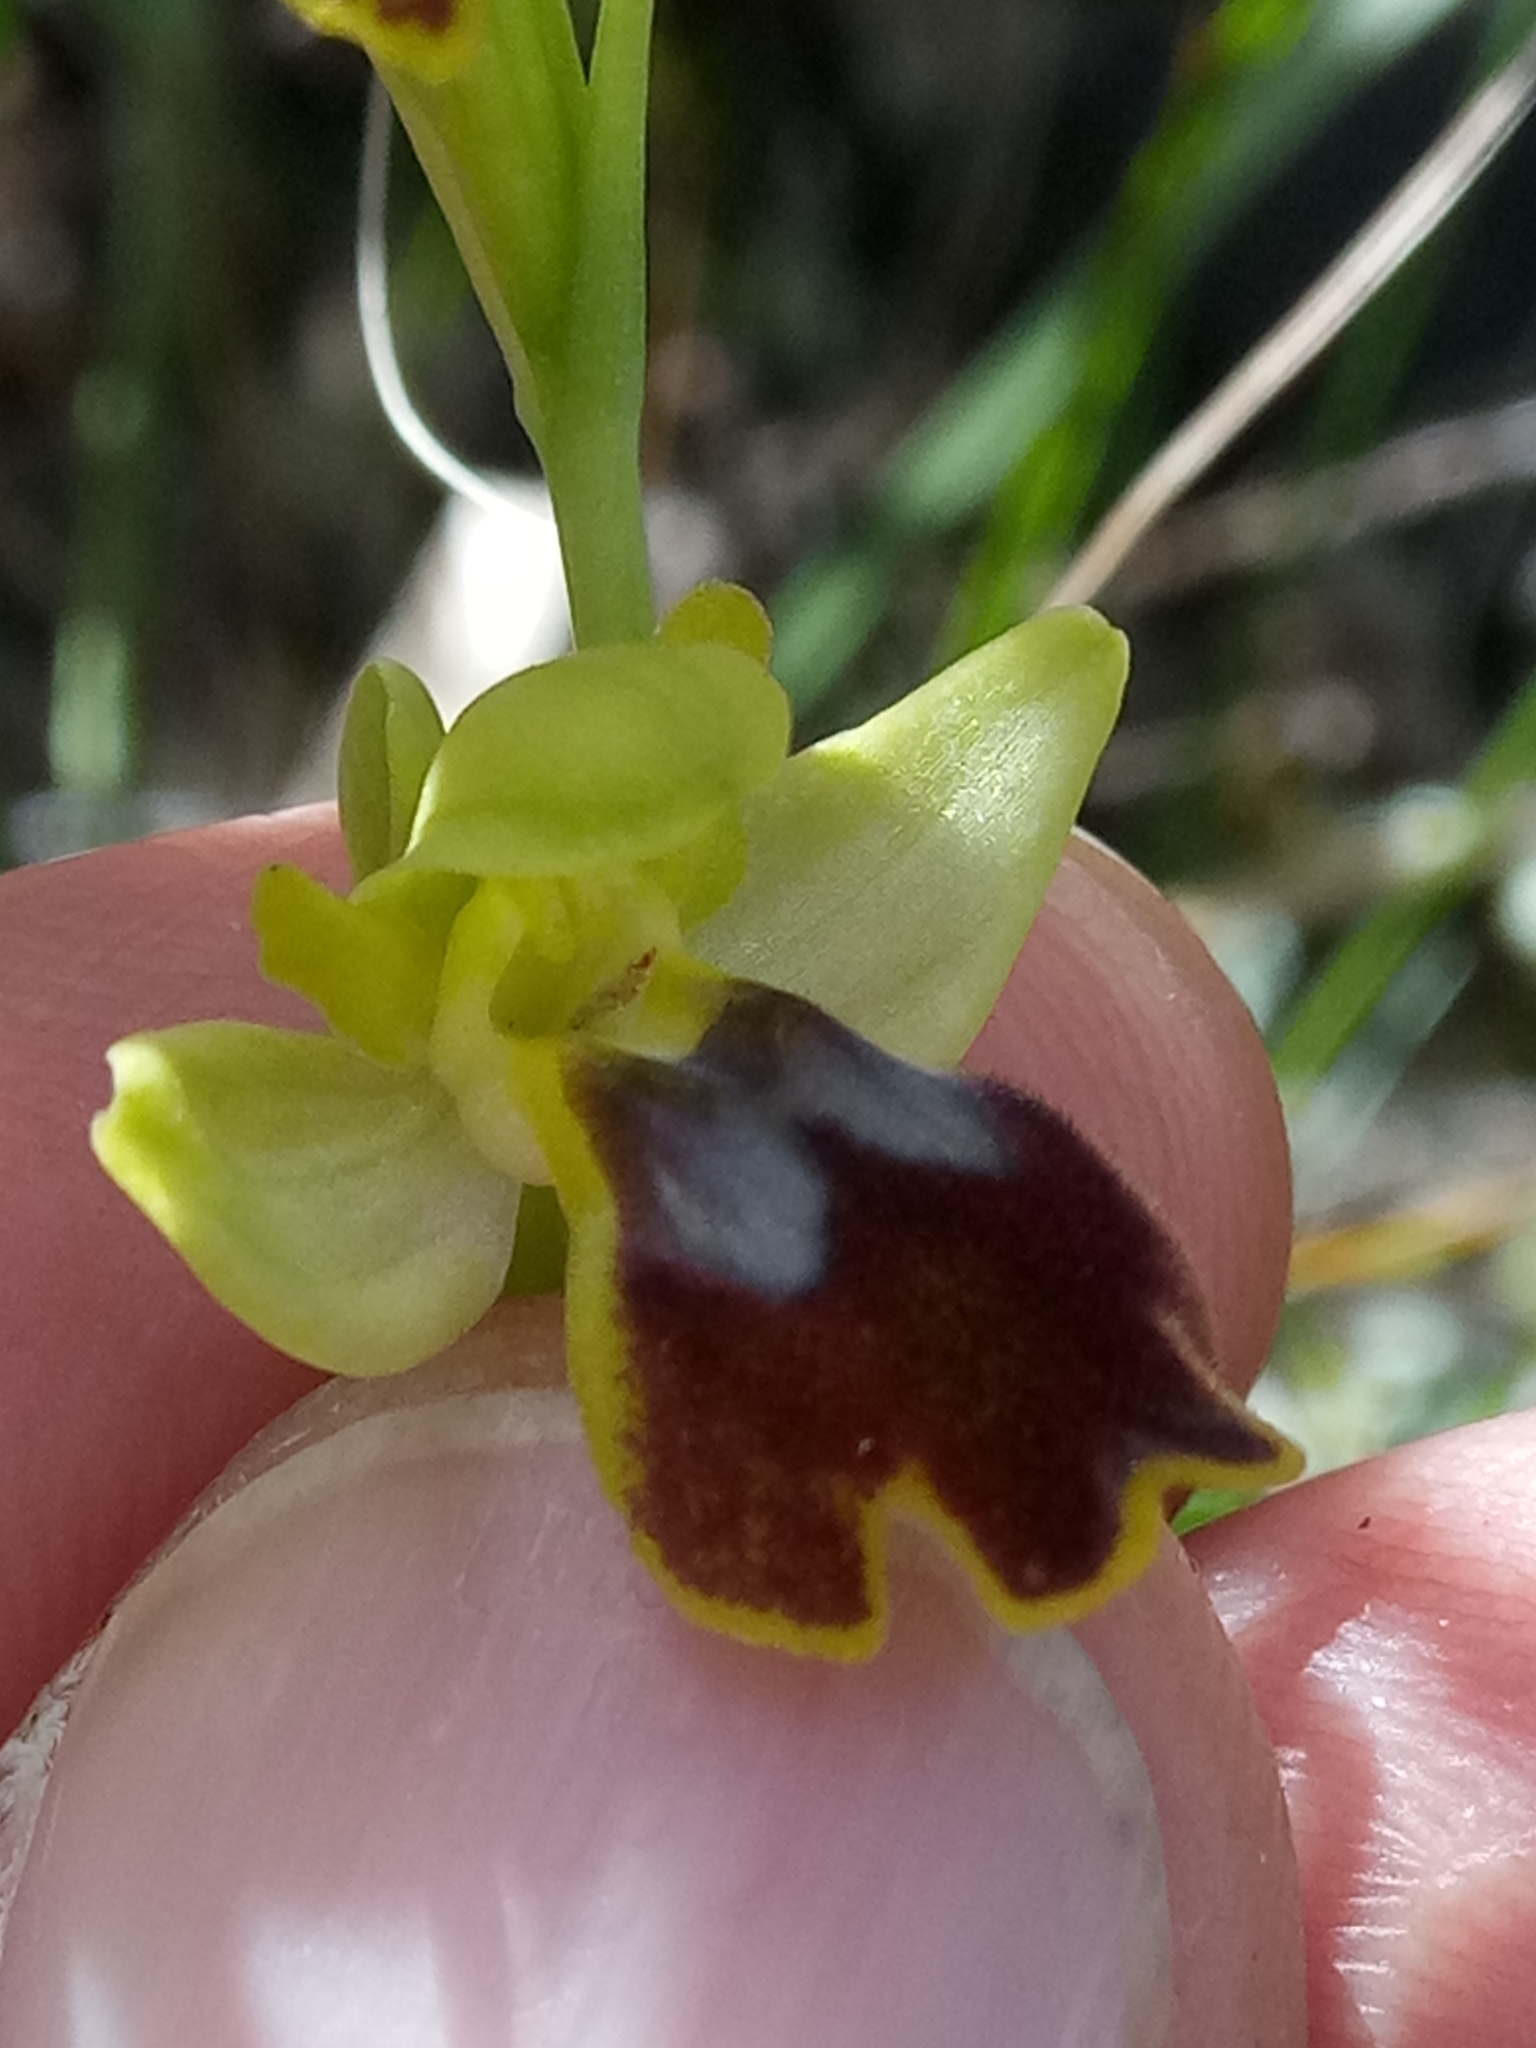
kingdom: Plantae
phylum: Tracheophyta
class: Liliopsida
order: Asparagales
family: Orchidaceae
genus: Ophrys
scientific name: Ophrys fusca
